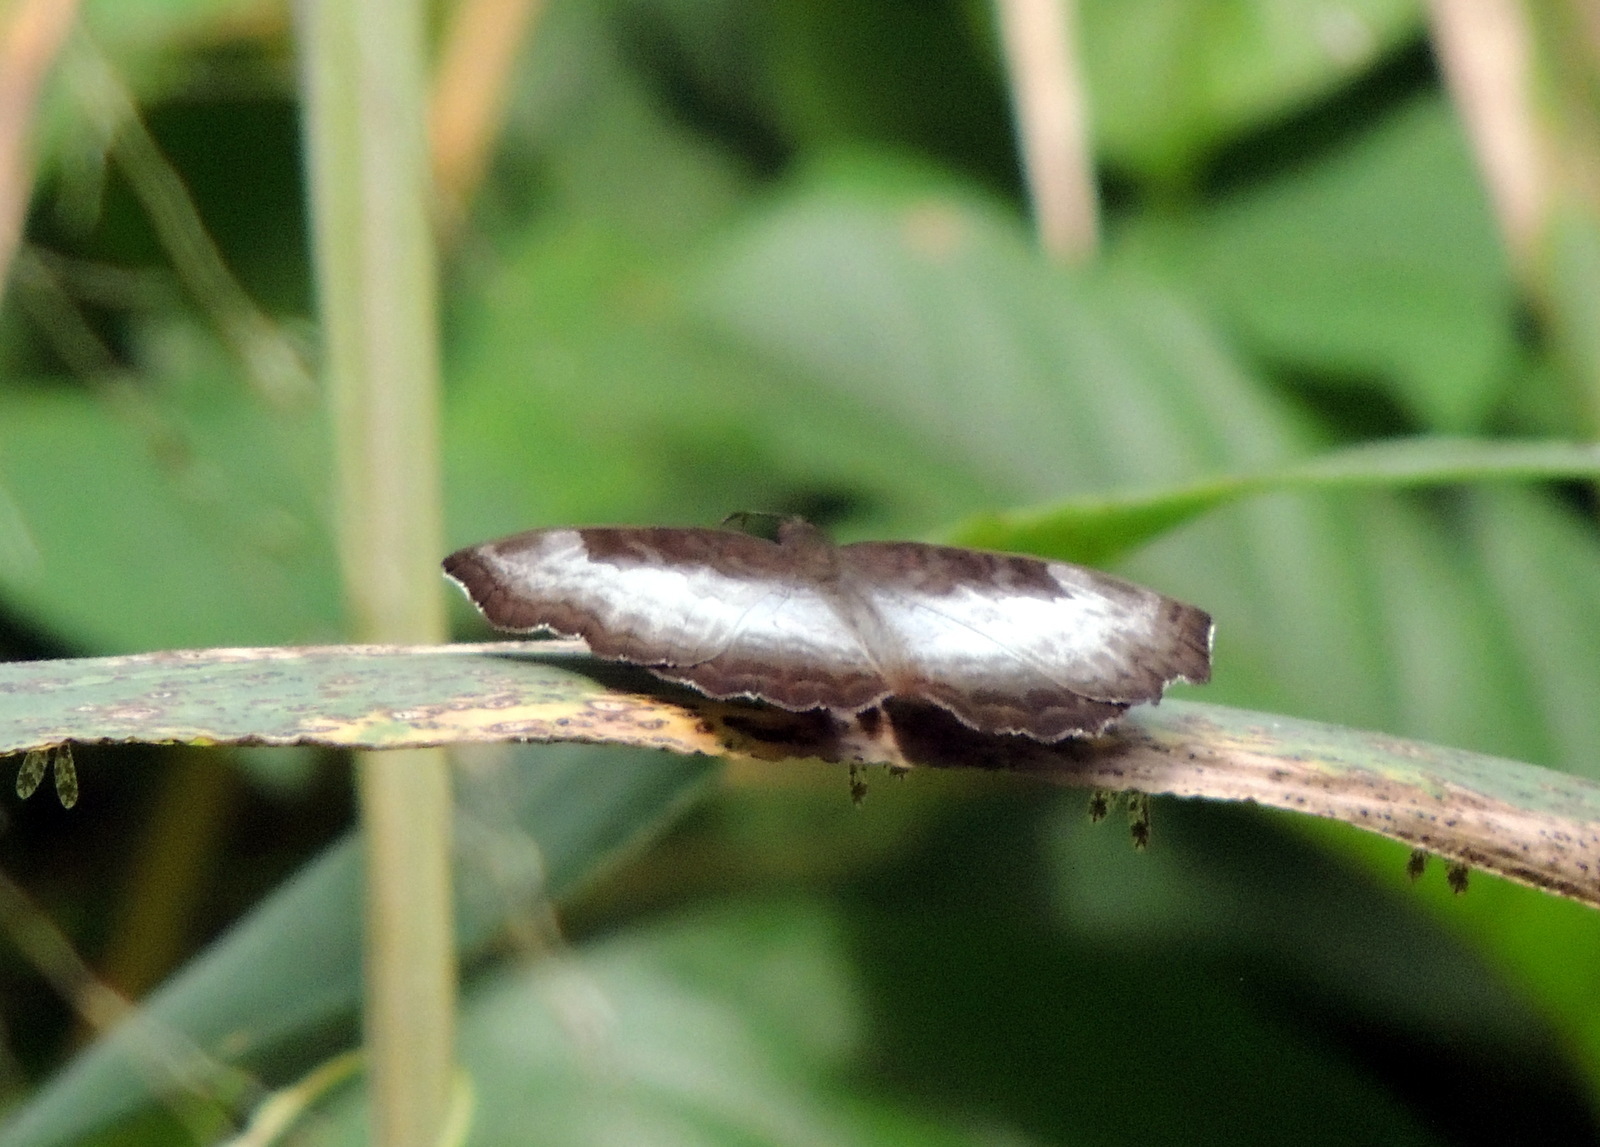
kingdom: Animalia
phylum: Arthropoda
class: Insecta
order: Lepidoptera
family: Nymphalidae
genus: Ariadne
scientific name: Ariadne enotrea
